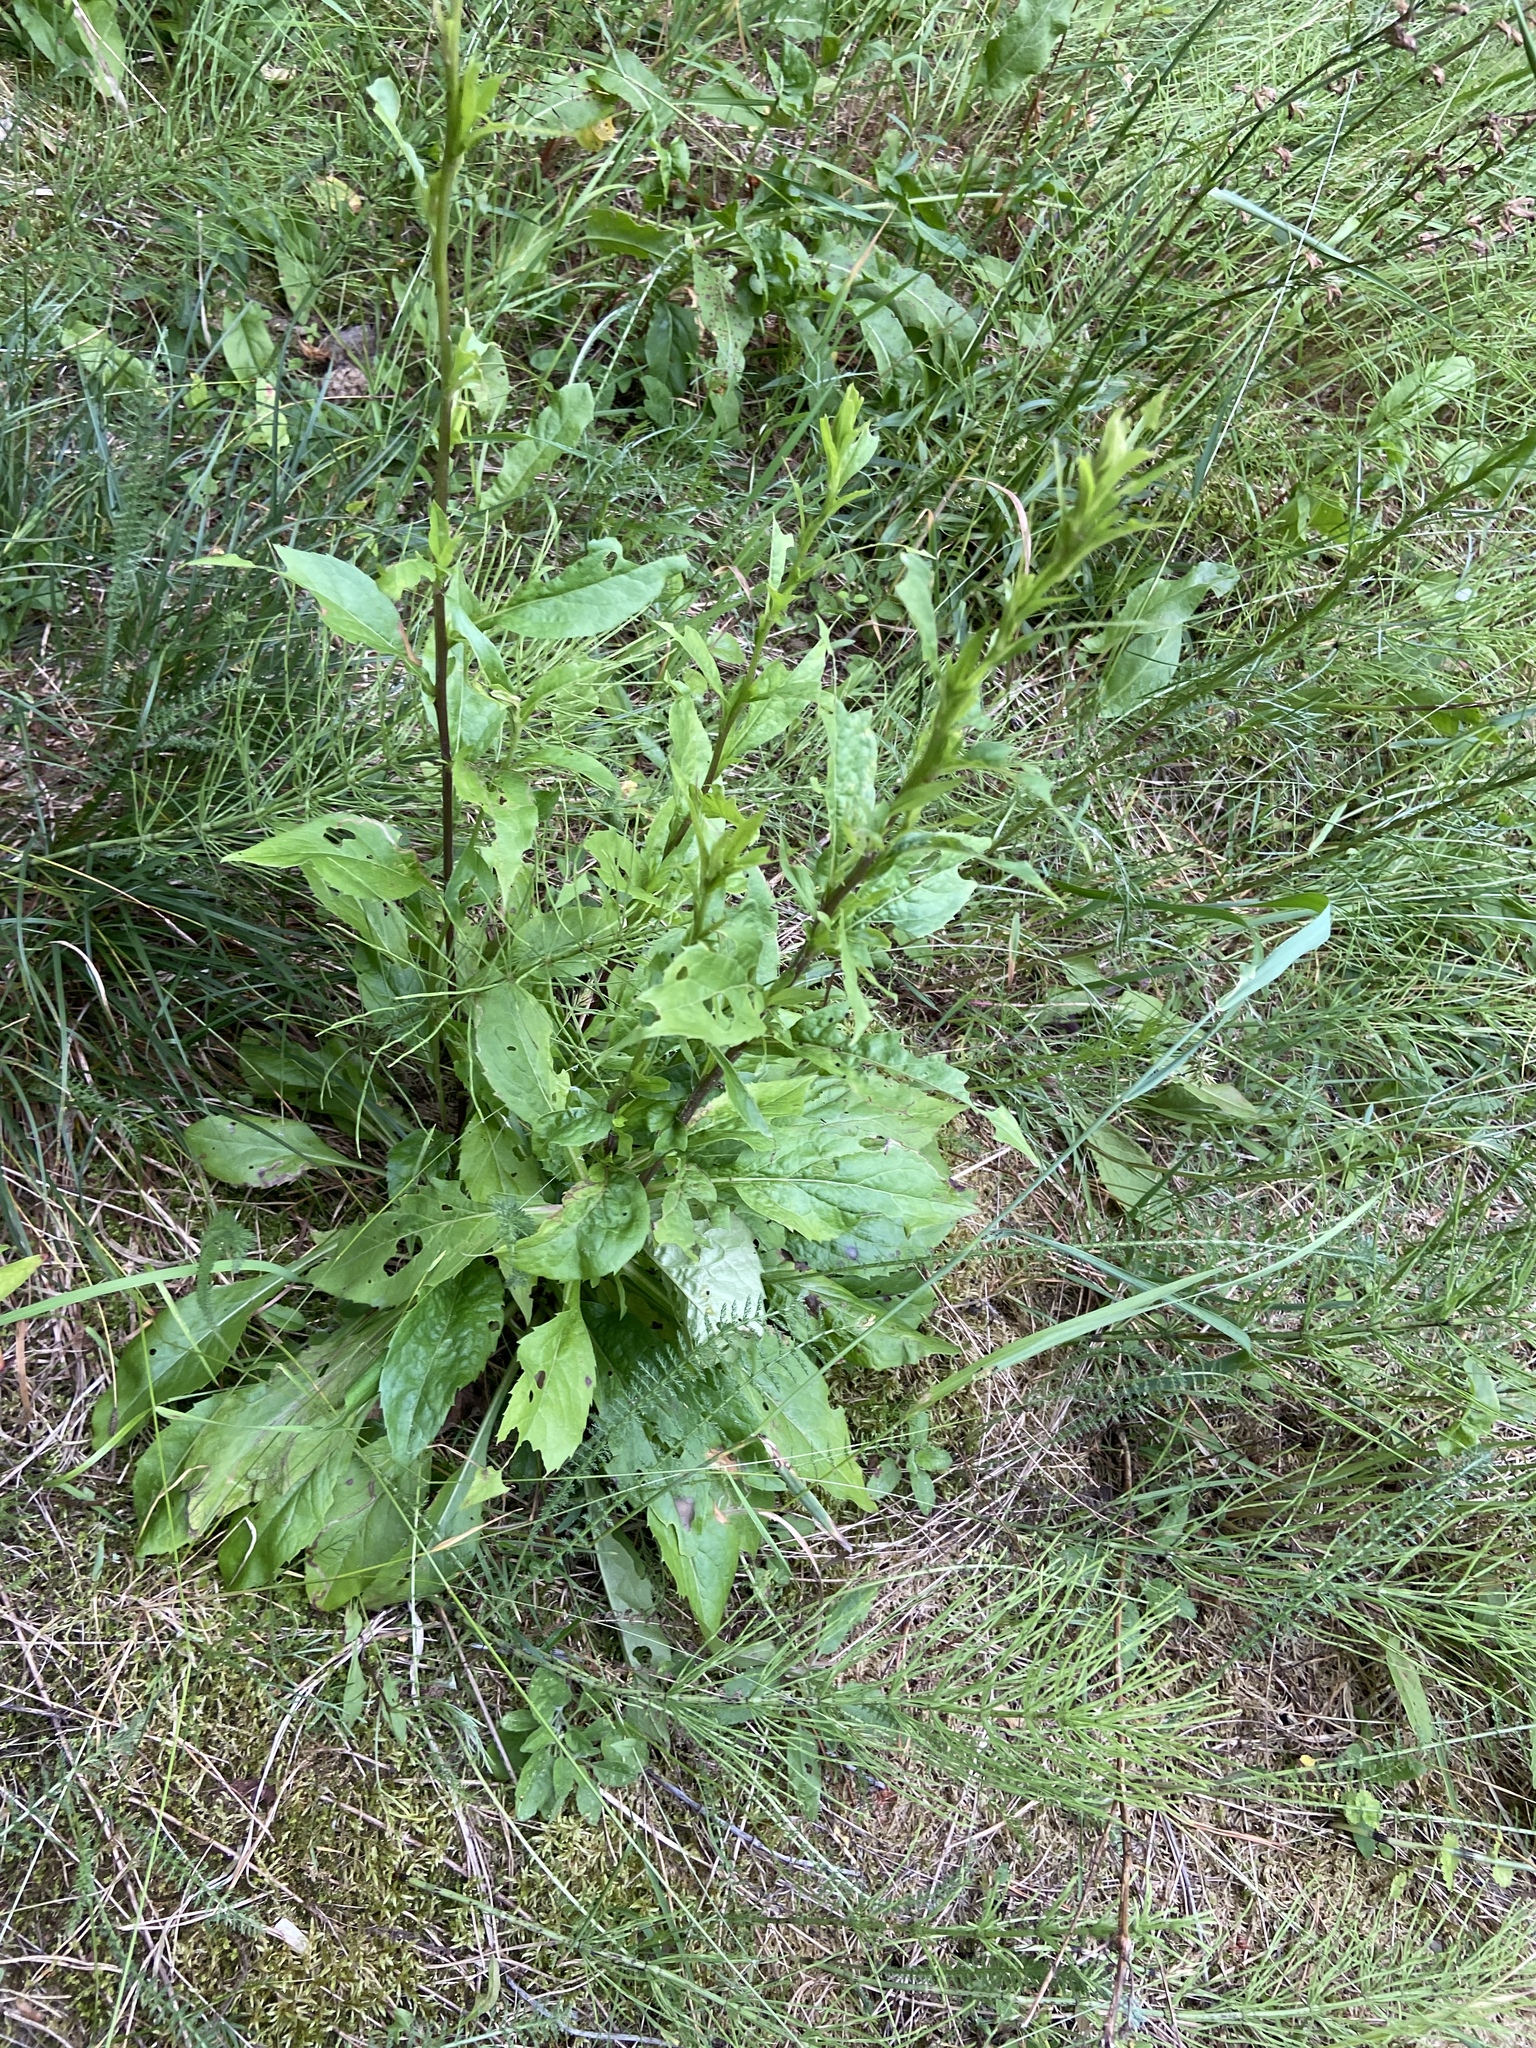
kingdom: Plantae
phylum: Tracheophyta
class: Magnoliopsida
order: Asterales
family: Asteraceae
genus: Solidago
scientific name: Solidago virgaurea
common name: Goldenrod
